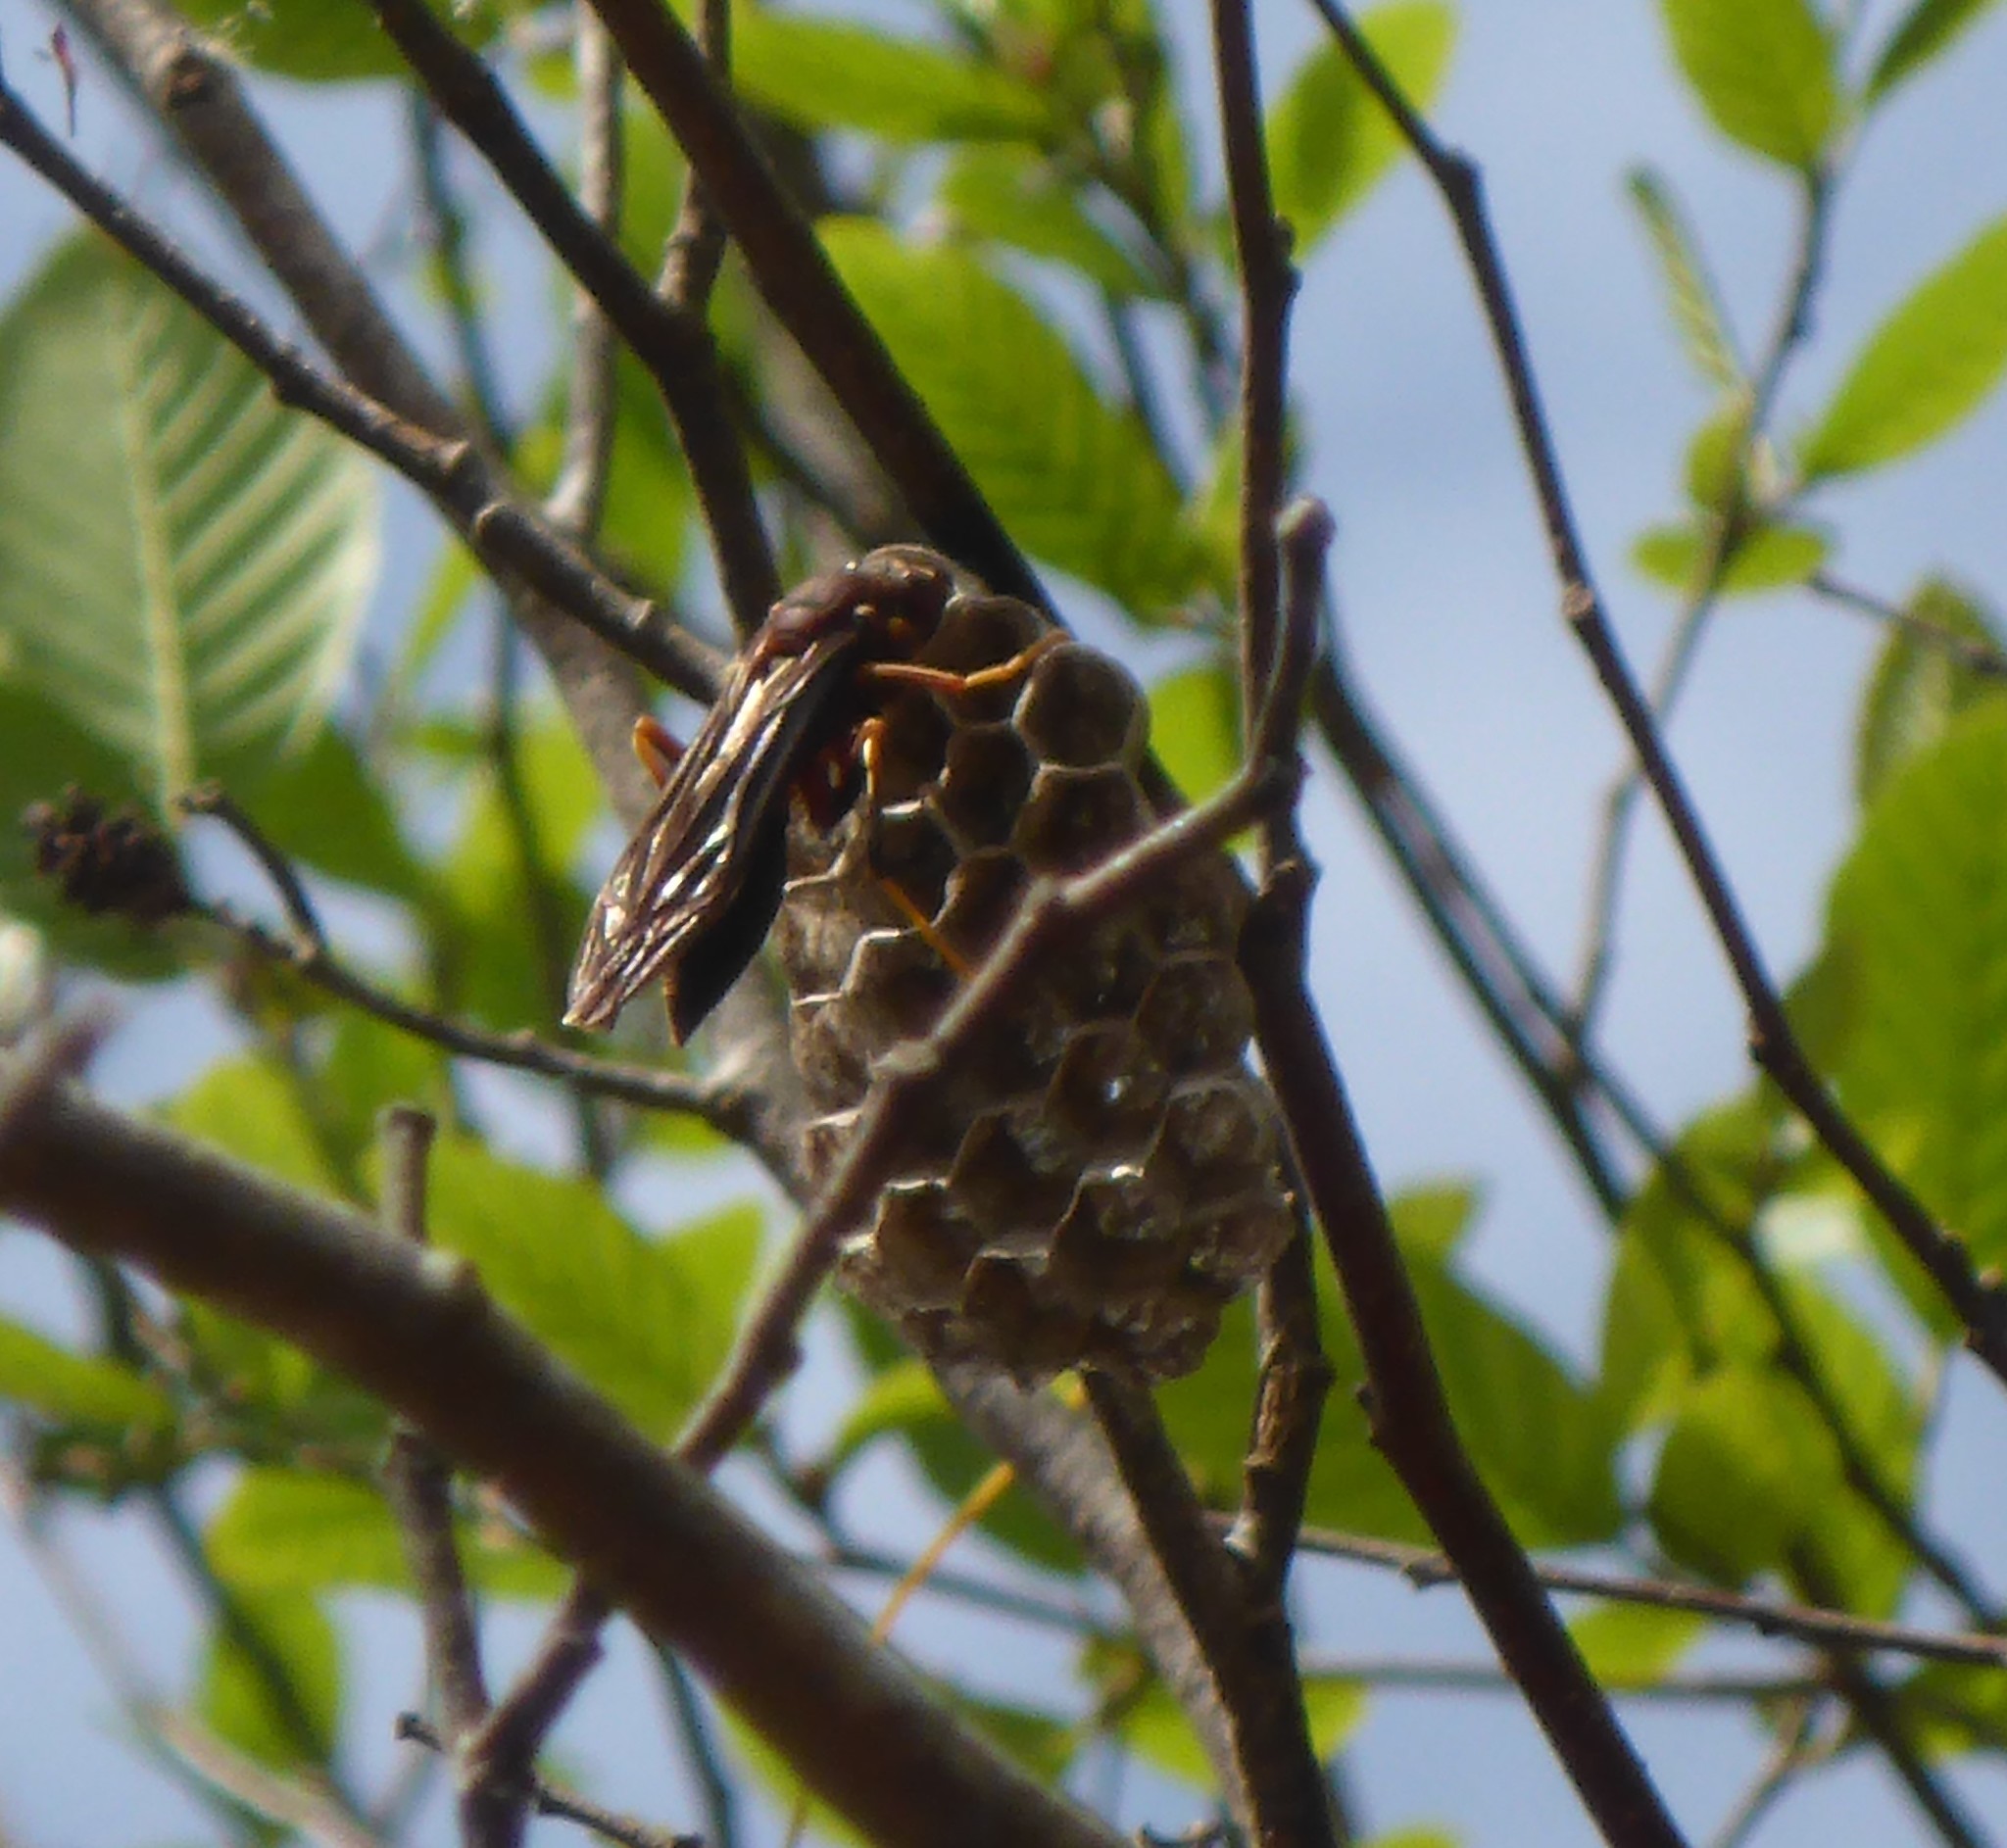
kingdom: Animalia
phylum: Arthropoda
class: Insecta
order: Hymenoptera
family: Eumenidae
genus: Polistes
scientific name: Polistes
